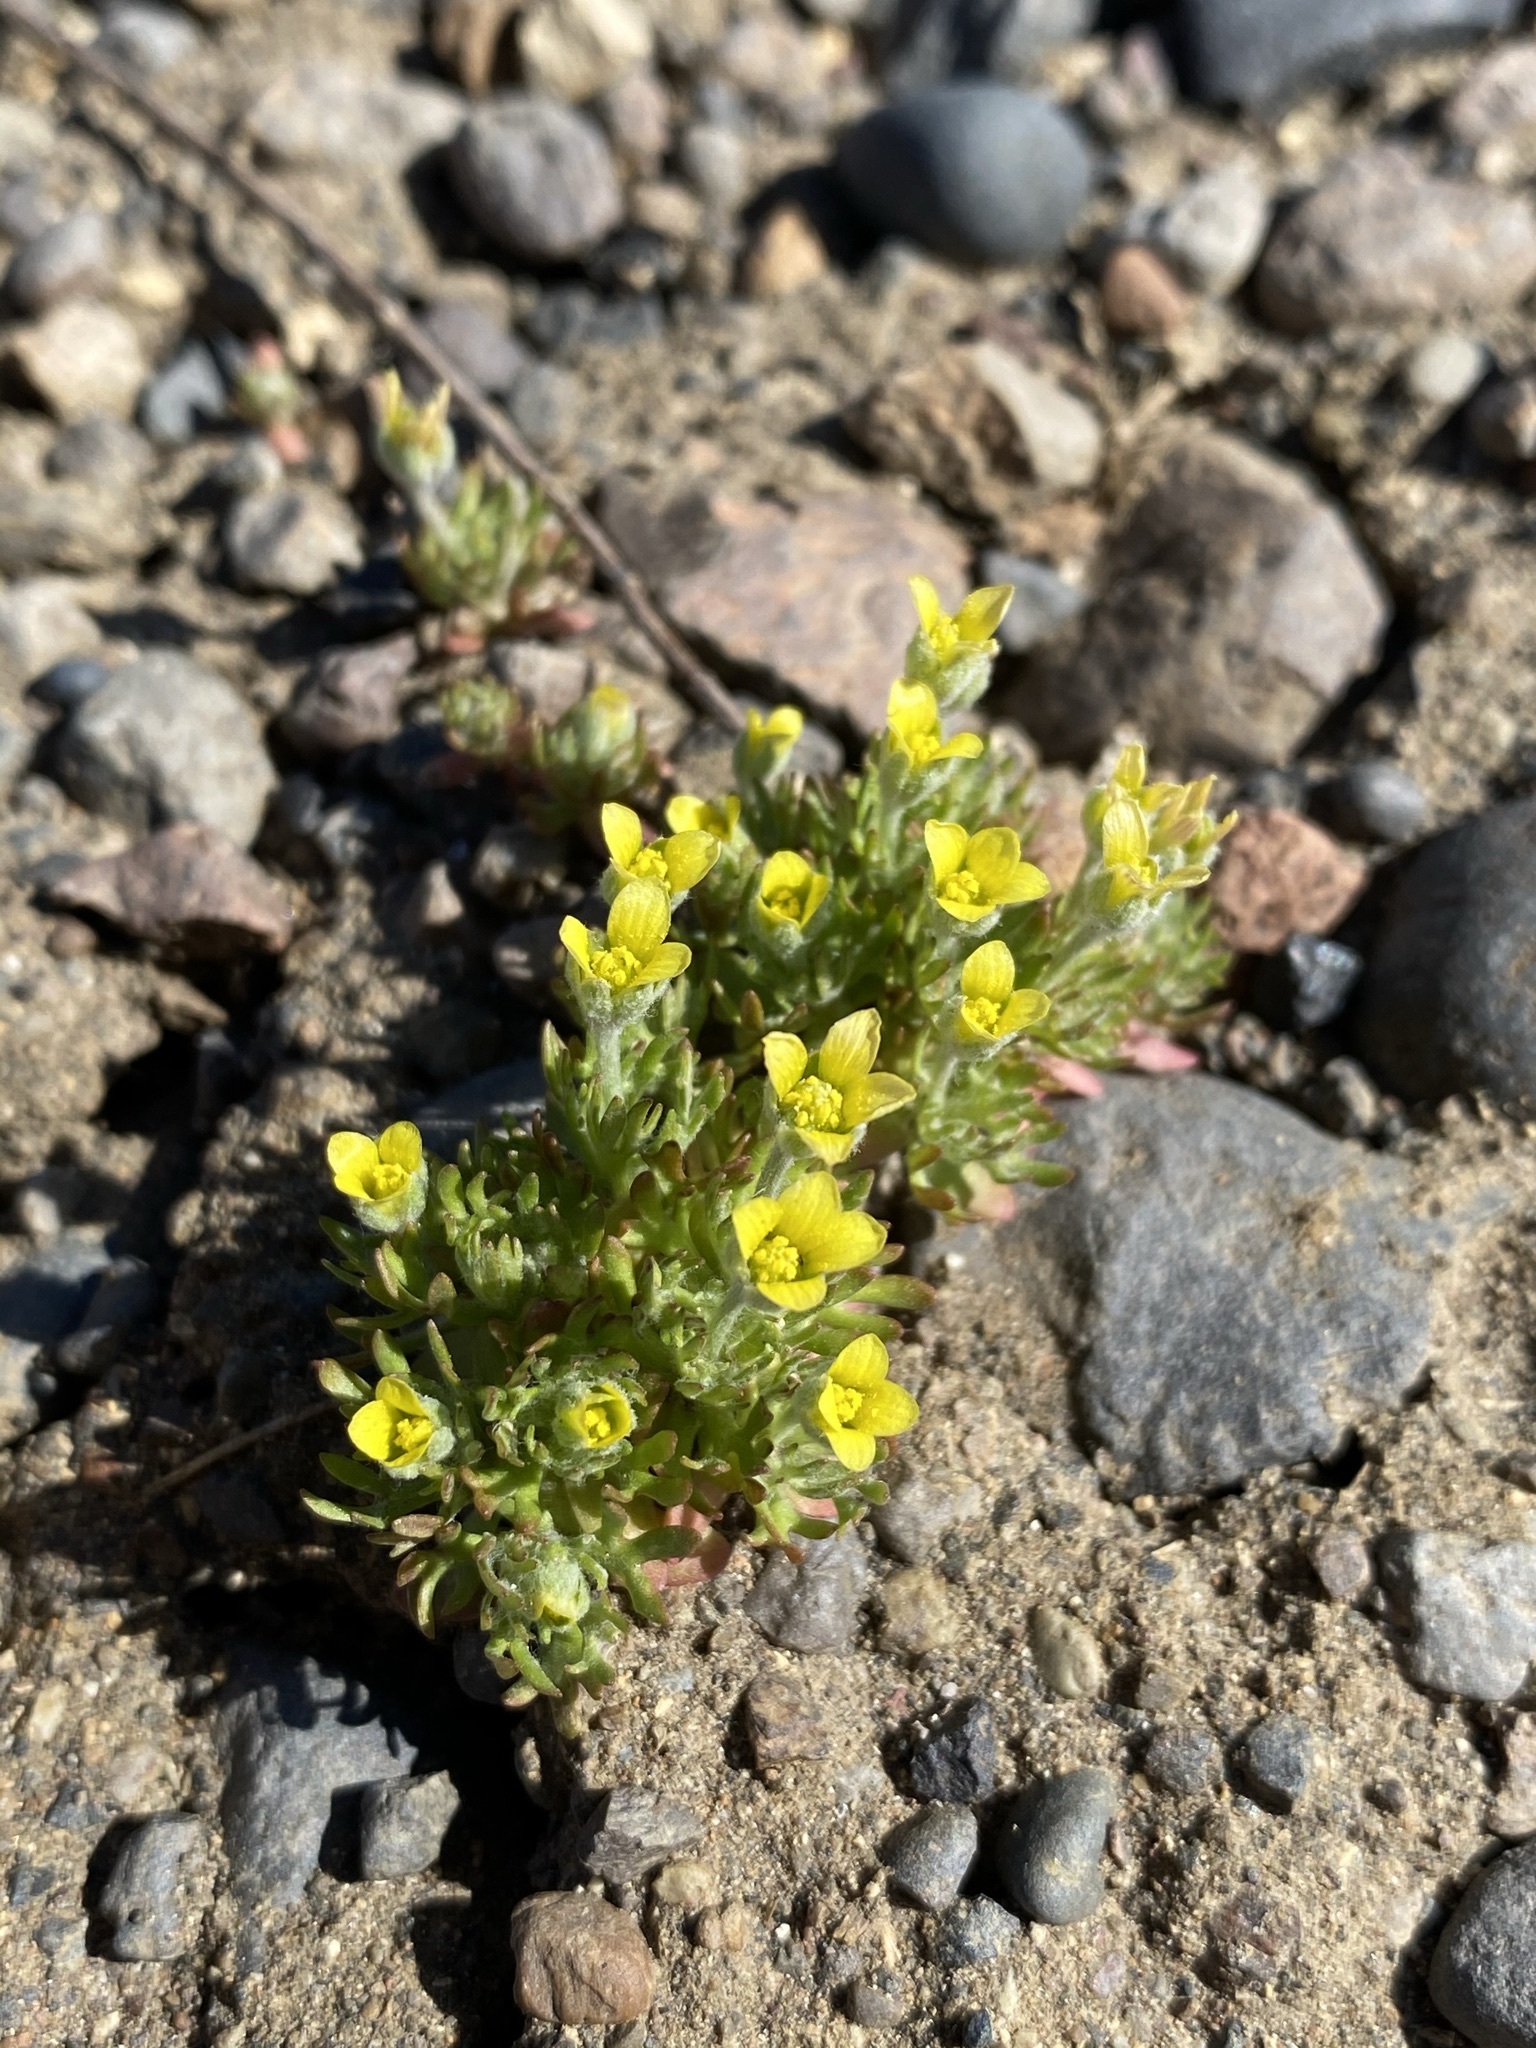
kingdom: Plantae
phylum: Tracheophyta
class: Magnoliopsida
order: Ranunculales
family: Ranunculaceae
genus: Ceratocephala
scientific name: Ceratocephala orthoceras
